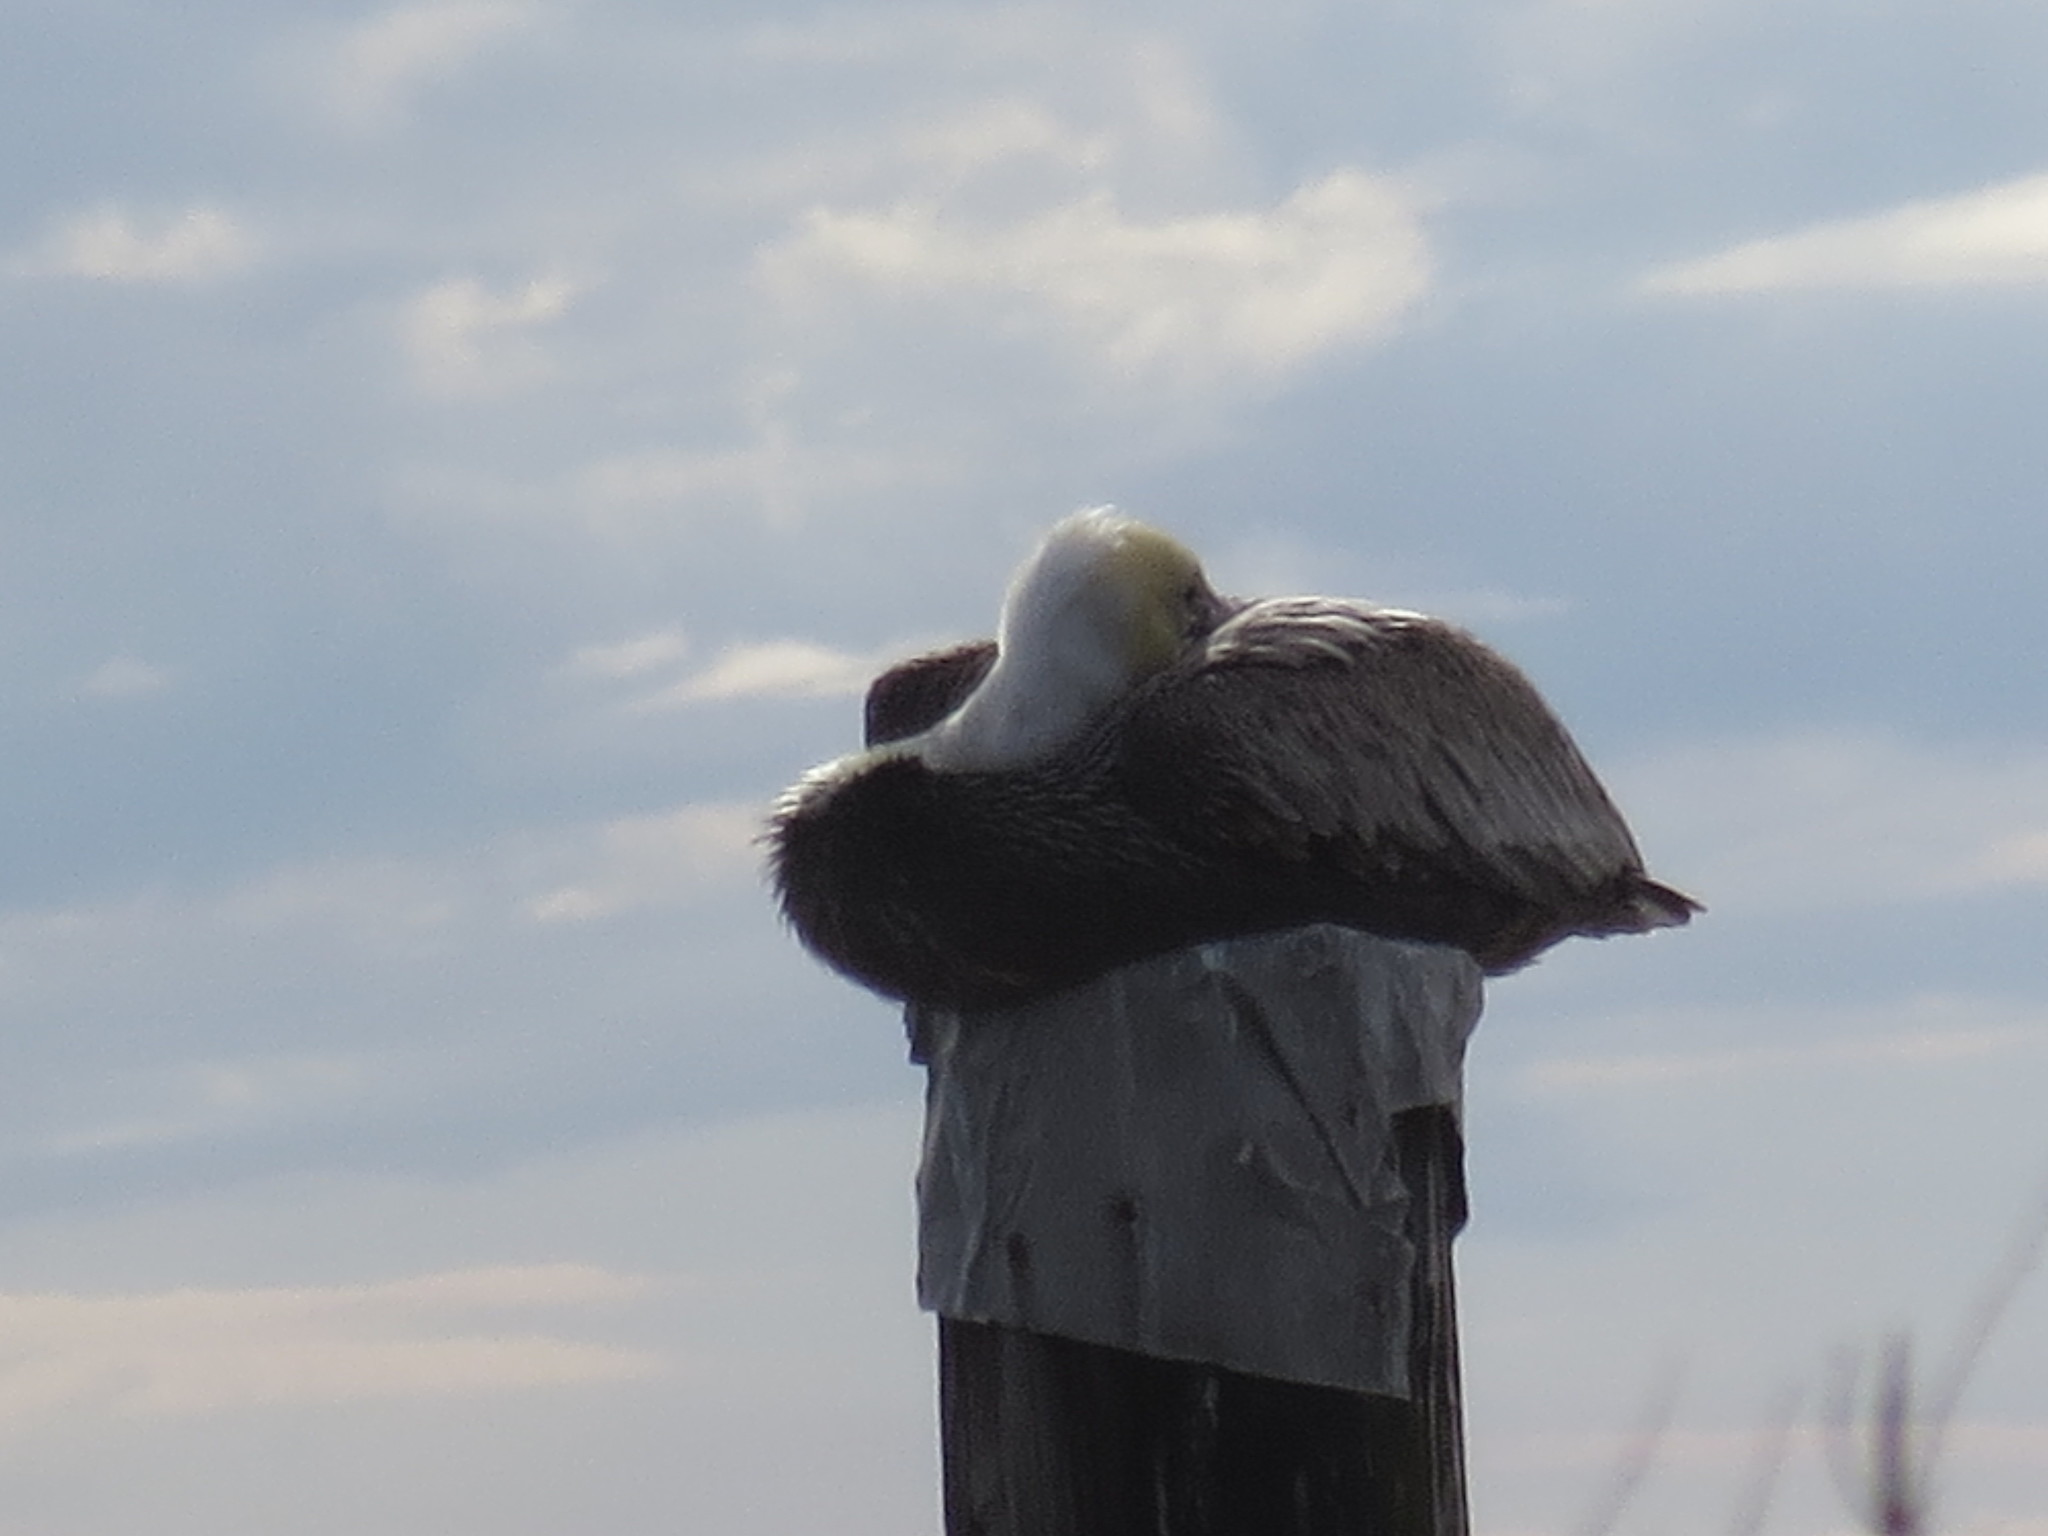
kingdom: Animalia
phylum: Chordata
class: Aves
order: Pelecaniformes
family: Pelecanidae
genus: Pelecanus
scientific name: Pelecanus occidentalis
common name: Brown pelican
